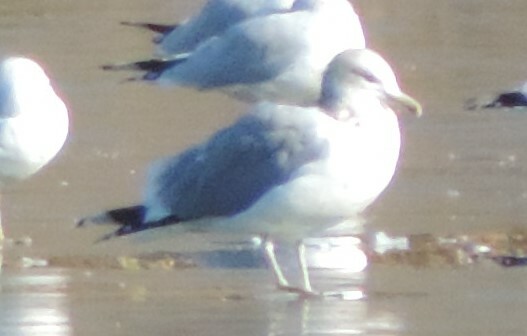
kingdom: Animalia
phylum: Chordata
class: Aves
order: Charadriiformes
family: Laridae
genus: Larus
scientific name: Larus argentatus
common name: Herring gull
